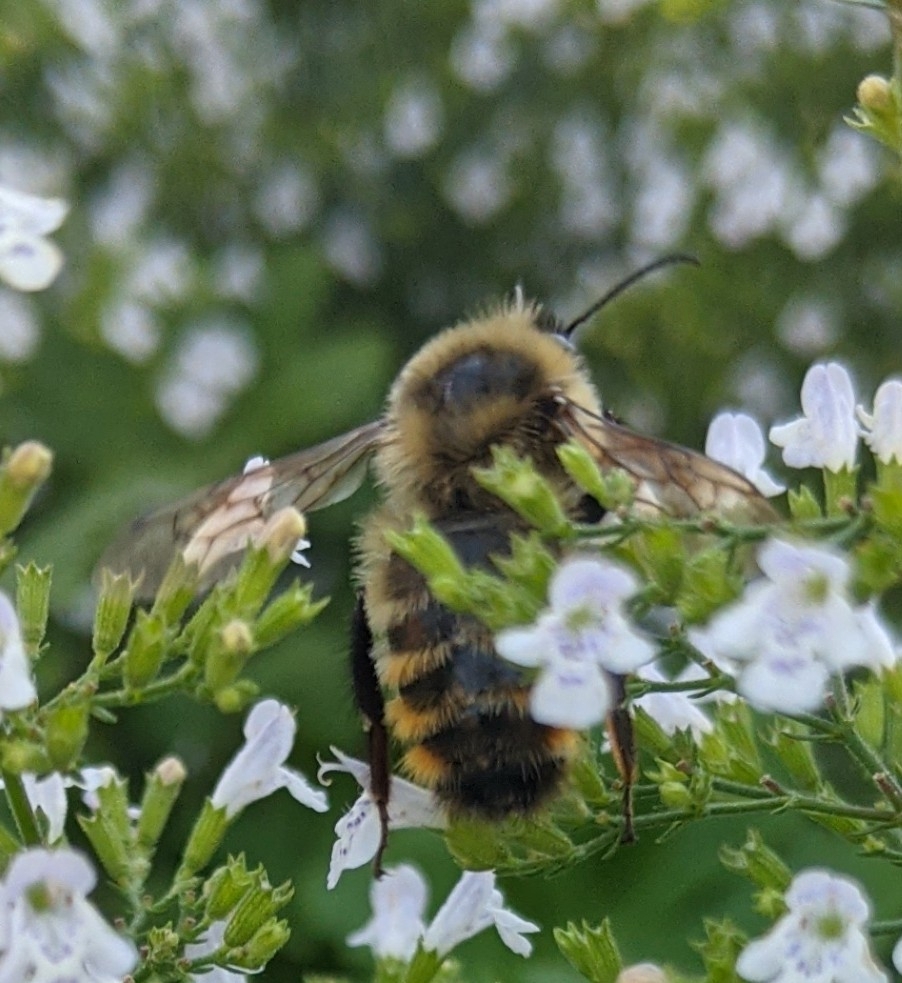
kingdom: Animalia
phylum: Arthropoda
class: Insecta
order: Hymenoptera
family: Apidae
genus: Bombus
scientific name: Bombus rufocinctus
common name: Red-belted bumble bee
